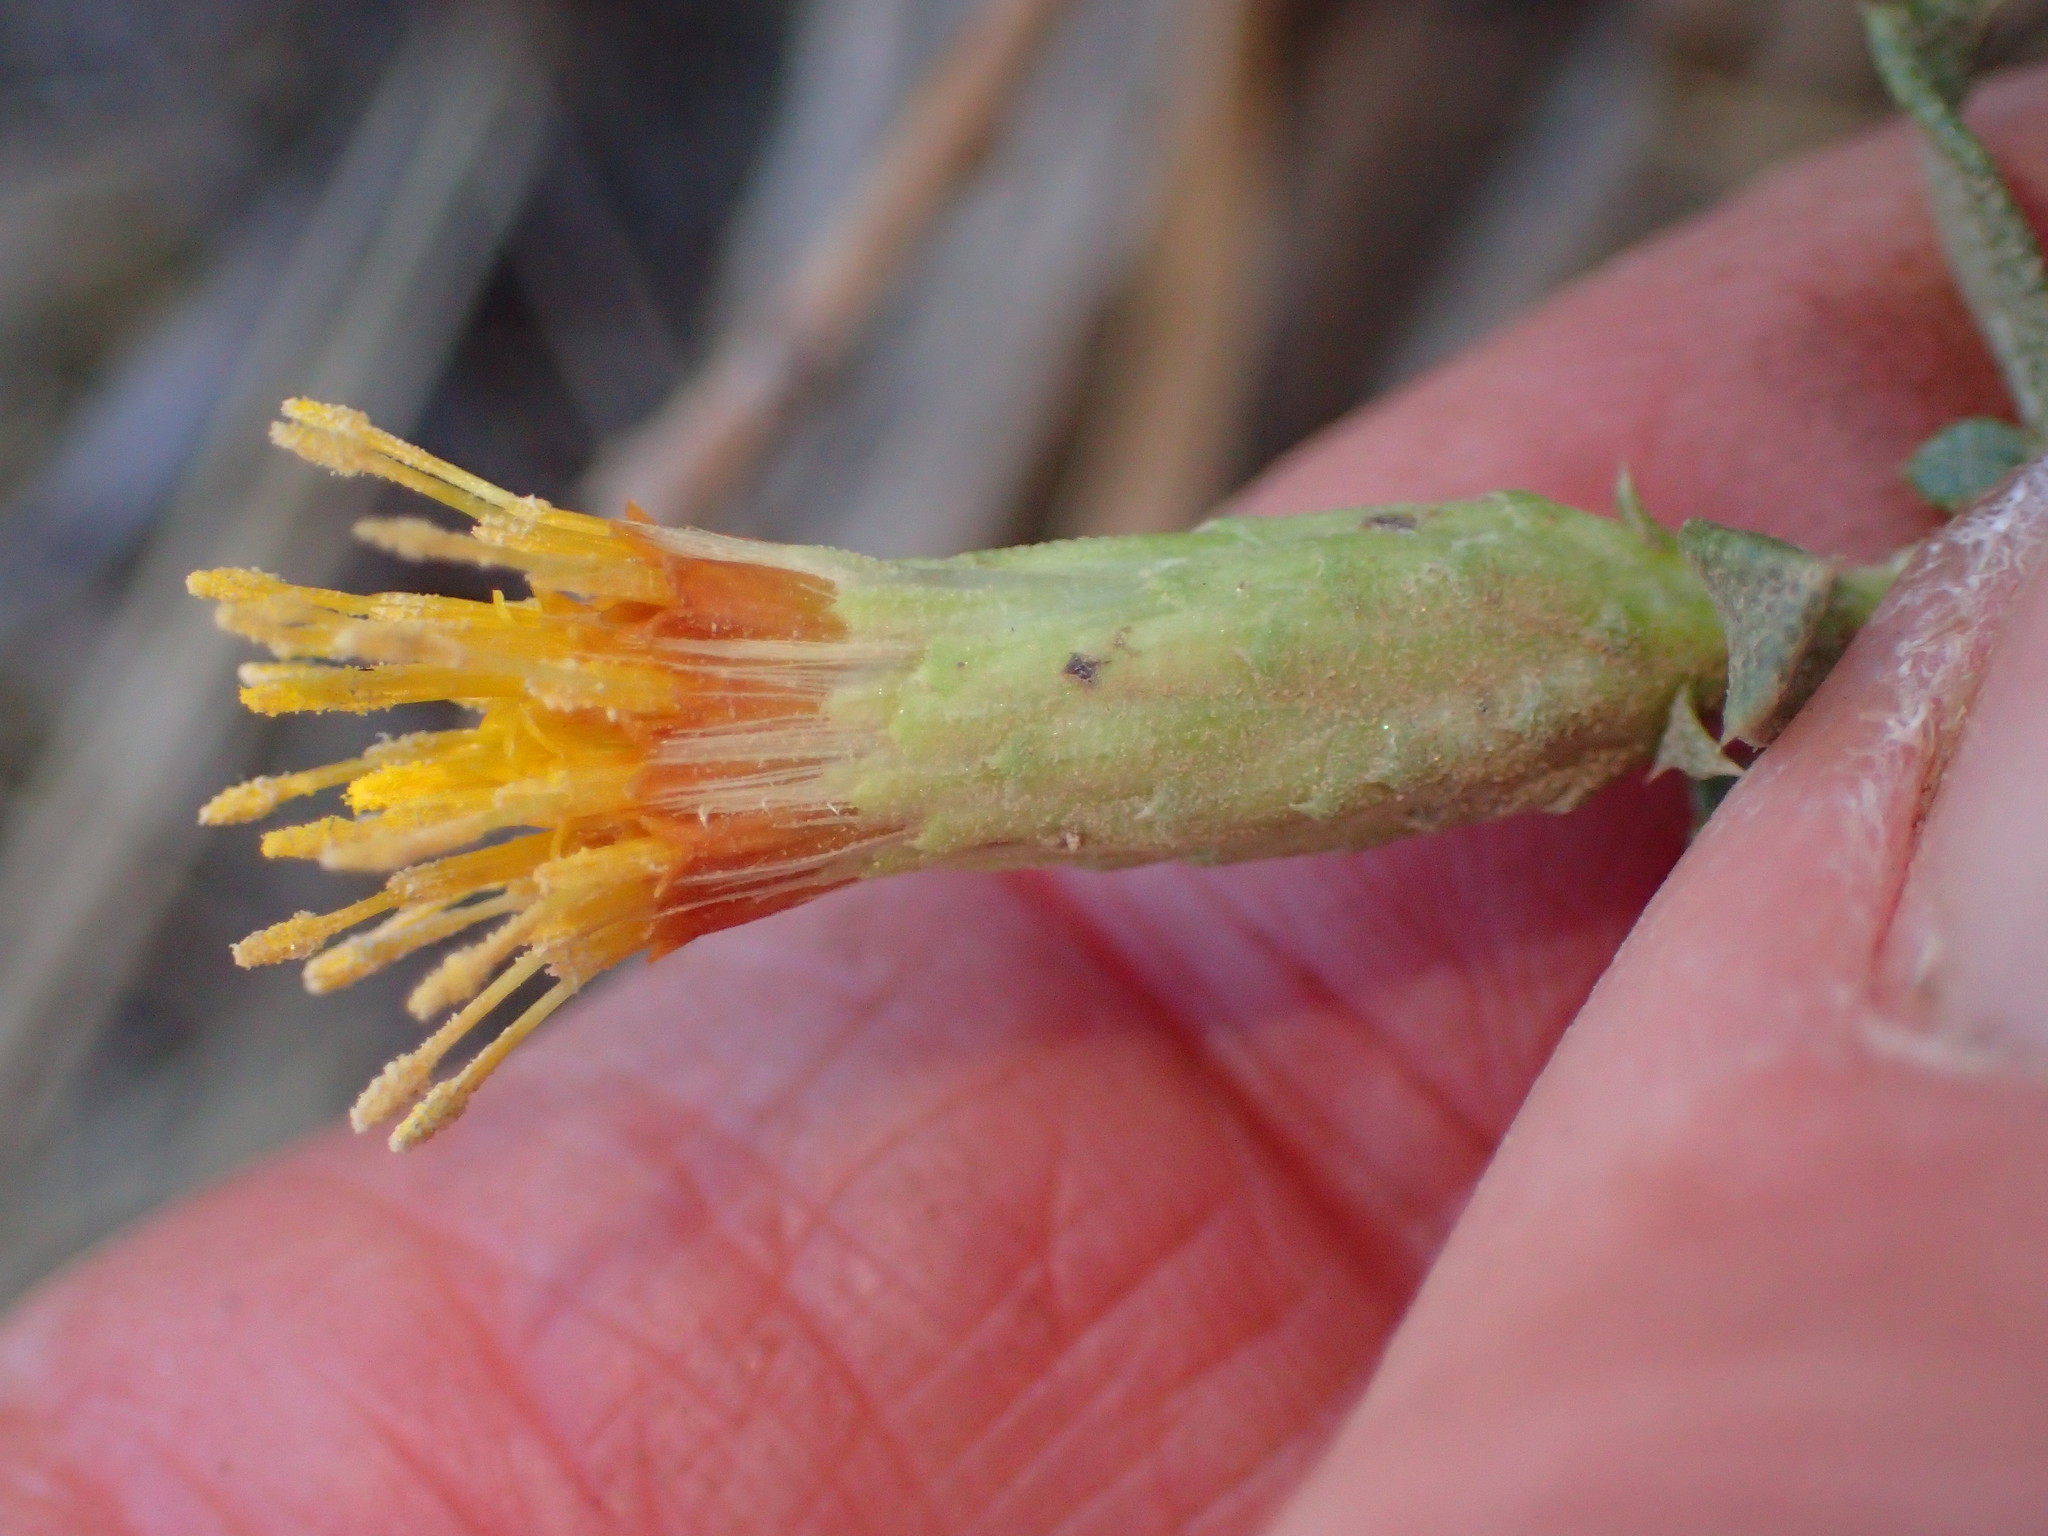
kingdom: Plantae
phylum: Tracheophyta
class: Magnoliopsida
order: Asterales
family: Asteraceae
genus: Hazardia
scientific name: Hazardia squarrosa
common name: Saw-tooth goldenbush
